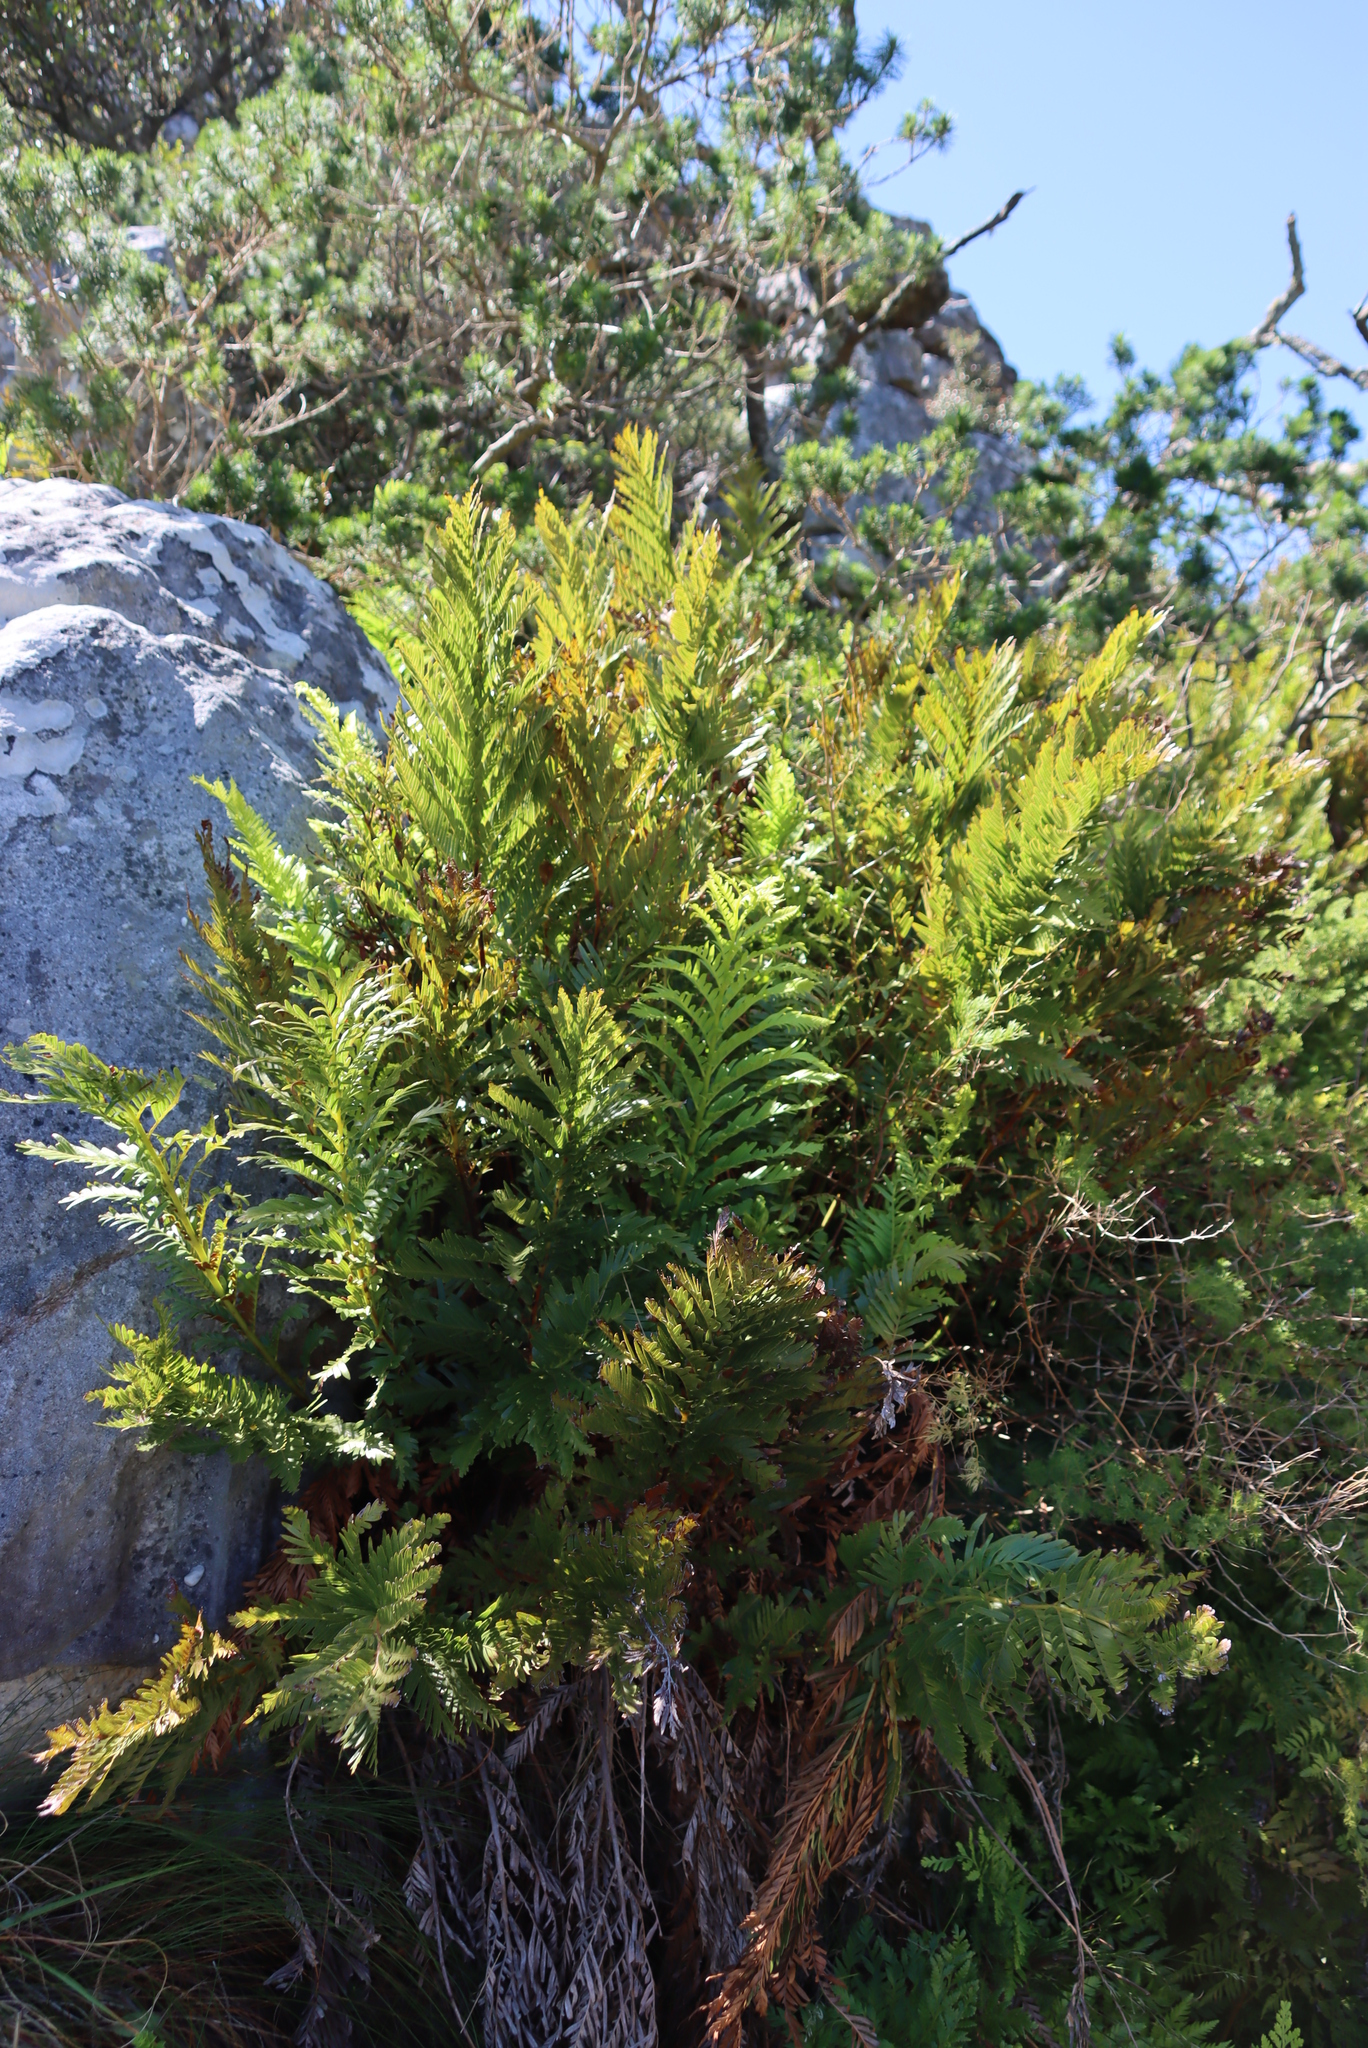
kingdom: Plantae
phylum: Tracheophyta
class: Polypodiopsida
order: Osmundales
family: Osmundaceae
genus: Todea
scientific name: Todea barbara
